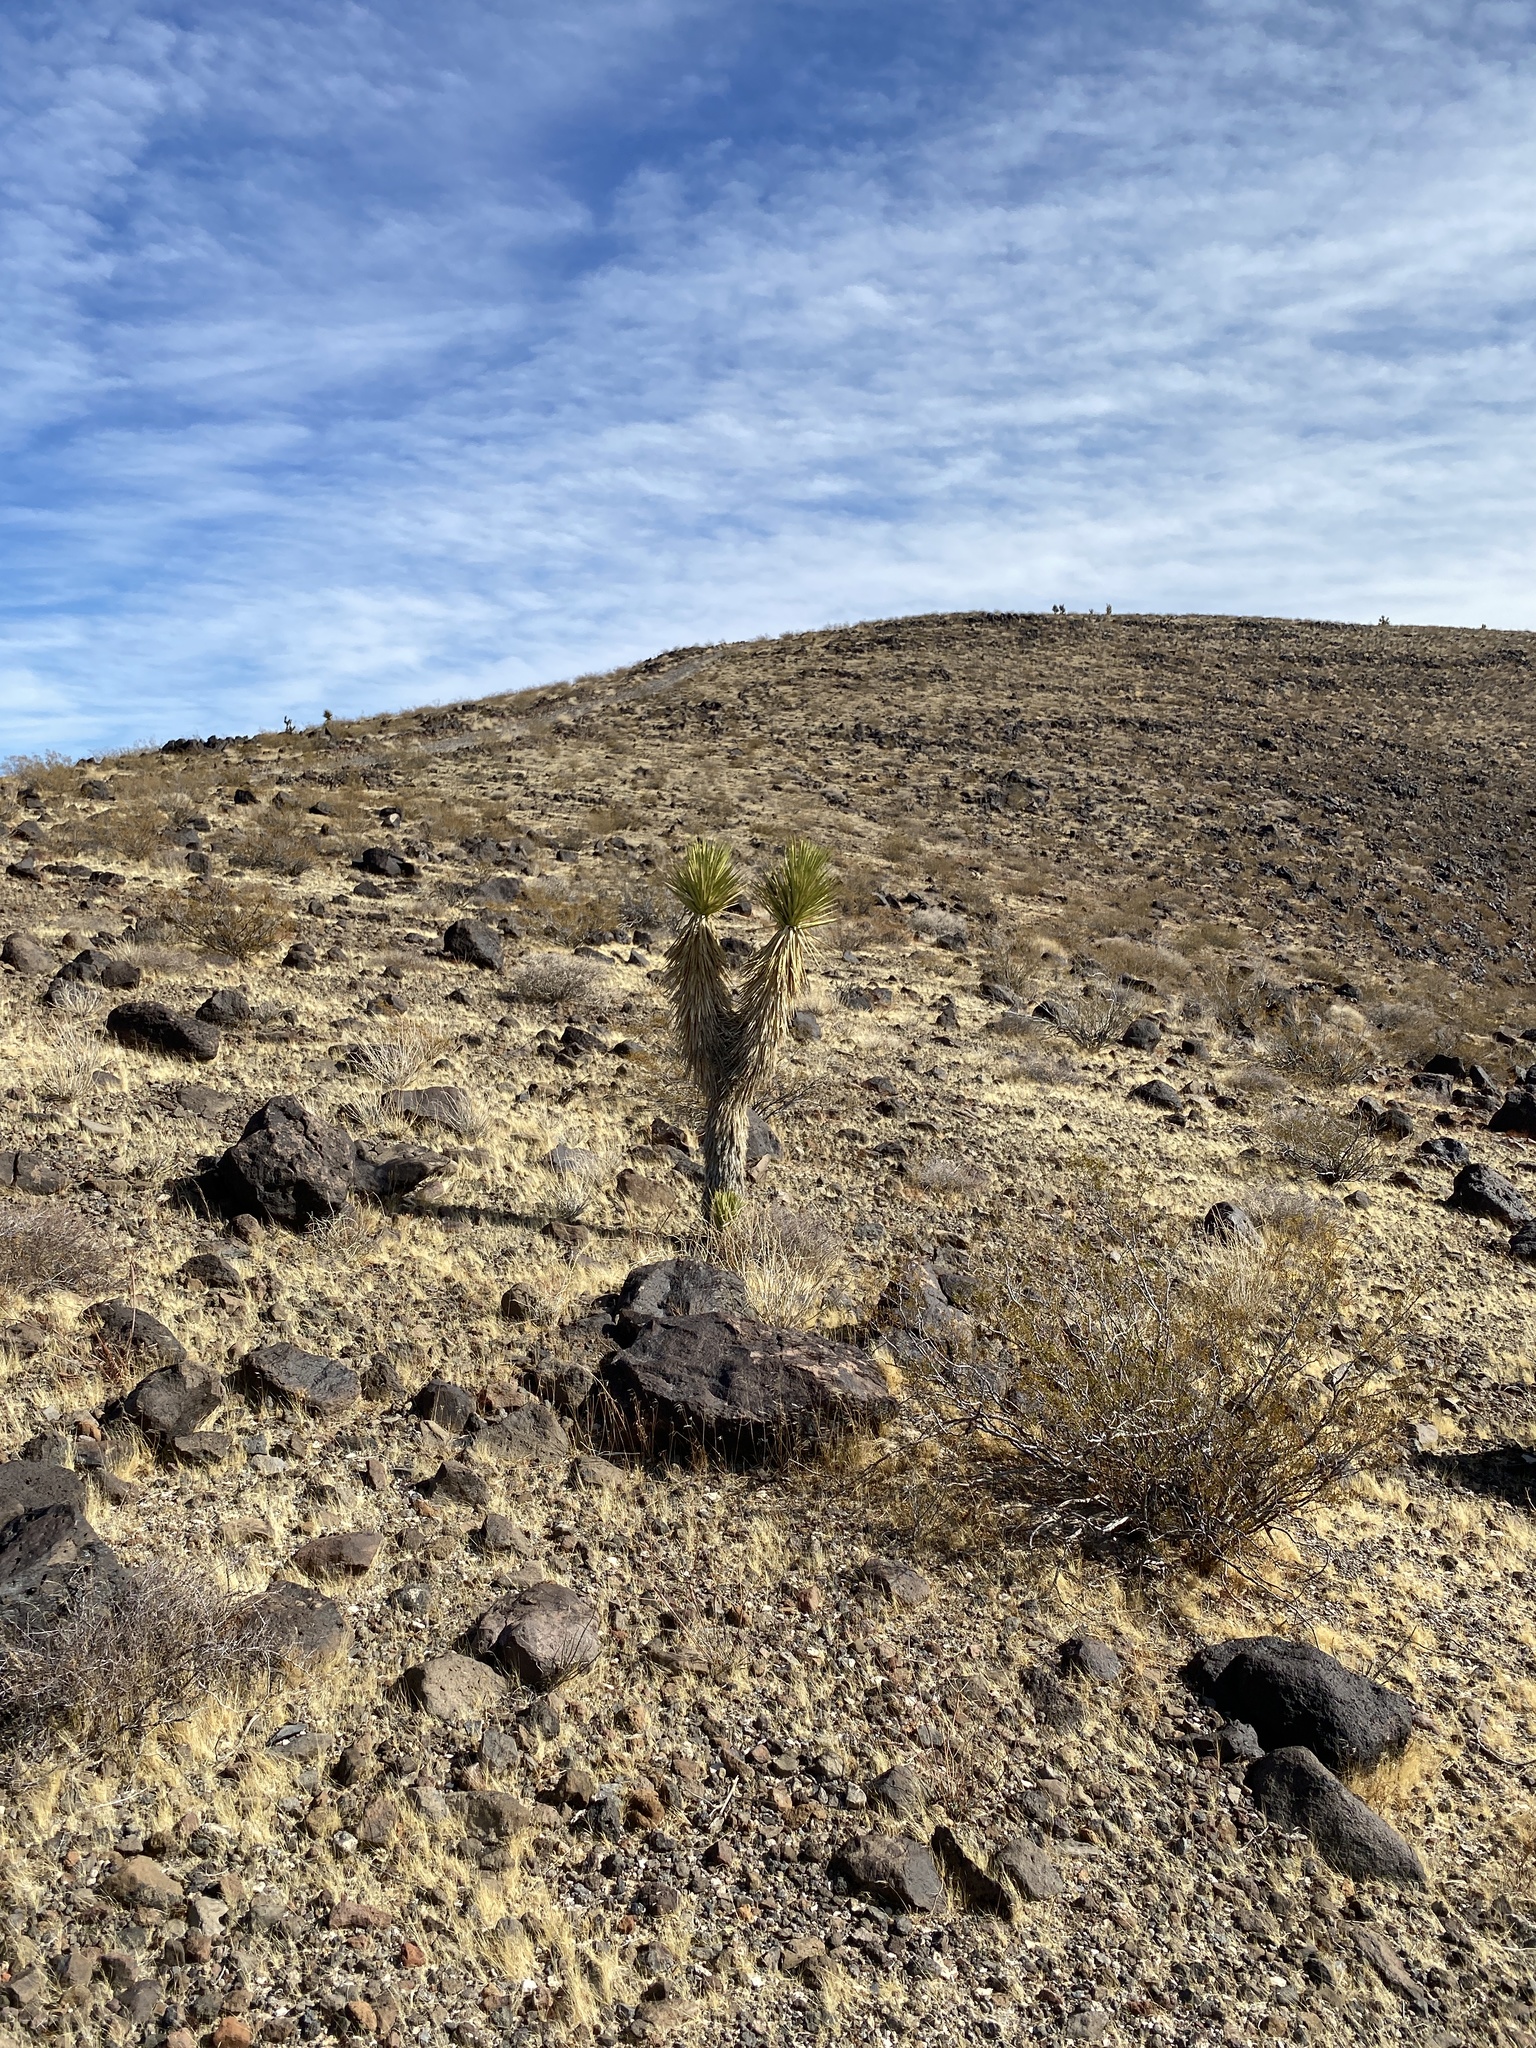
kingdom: Plantae
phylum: Tracheophyta
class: Liliopsida
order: Asparagales
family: Asparagaceae
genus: Yucca
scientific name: Yucca brevifolia
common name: Joshua tree
